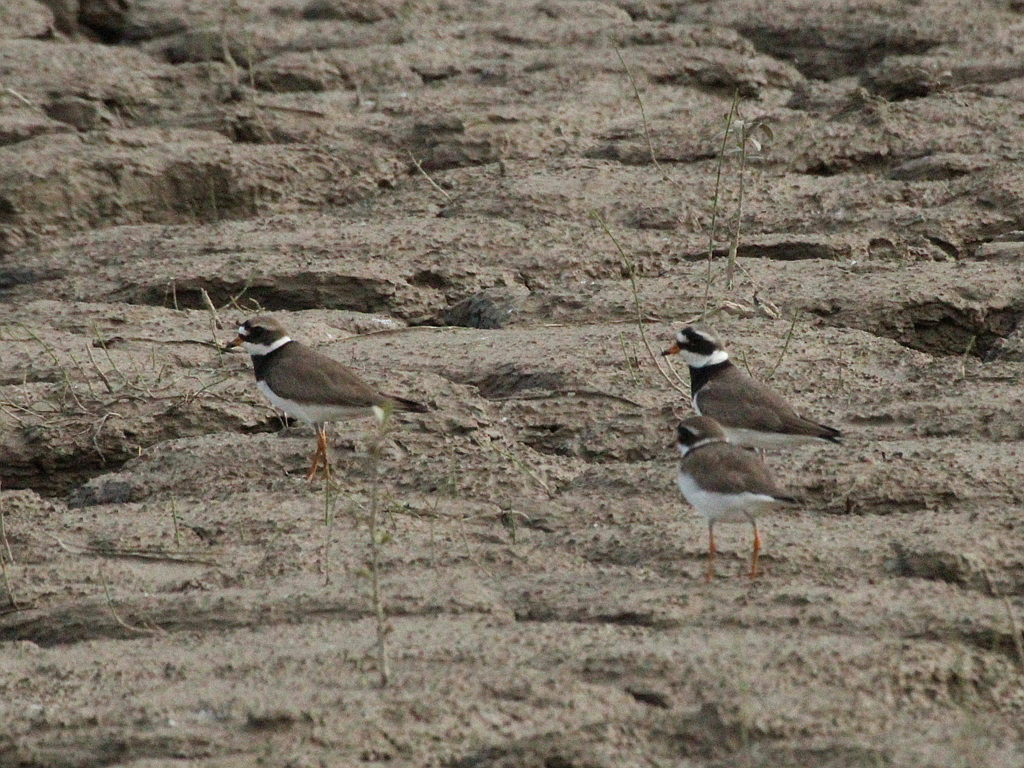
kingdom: Animalia
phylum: Chordata
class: Aves
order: Charadriiformes
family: Charadriidae
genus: Charadrius
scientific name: Charadrius hiaticula
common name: Common ringed plover
